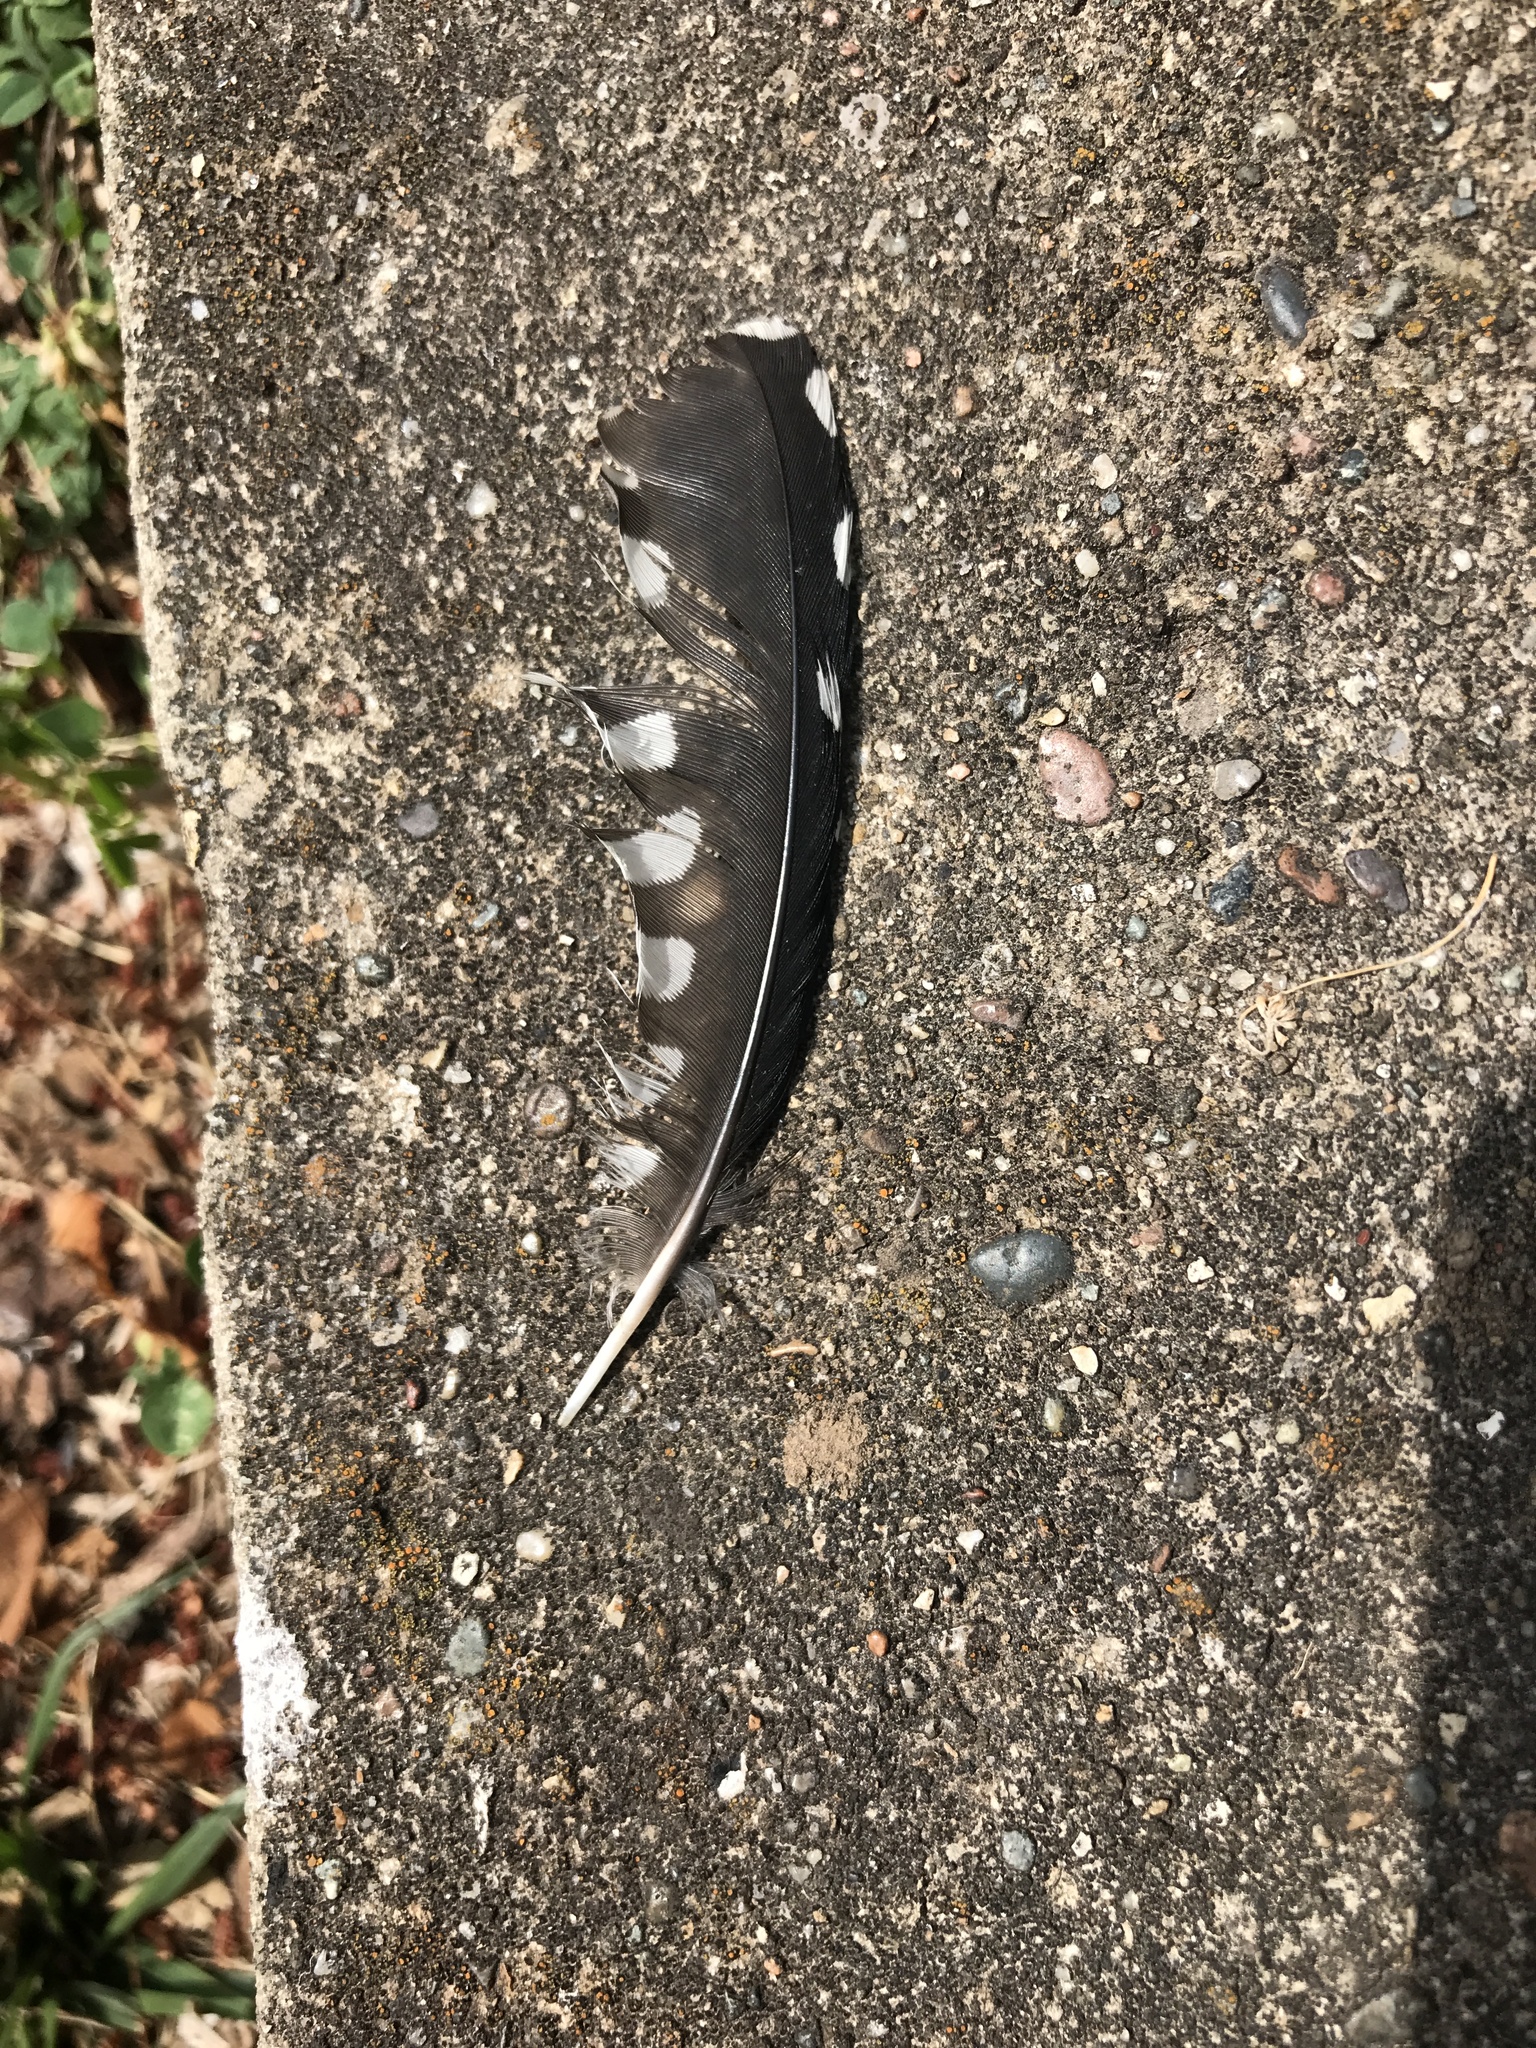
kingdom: Animalia
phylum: Chordata
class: Aves
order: Piciformes
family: Picidae
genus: Melanerpes
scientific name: Melanerpes carolinus
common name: Red-bellied woodpecker
